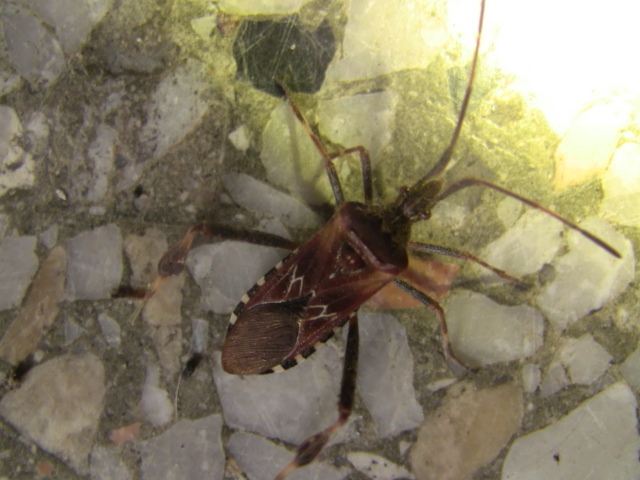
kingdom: Animalia
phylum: Arthropoda
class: Insecta
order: Hemiptera
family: Coreidae
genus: Leptoglossus
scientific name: Leptoglossus occidentalis
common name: Western conifer-seed bug
